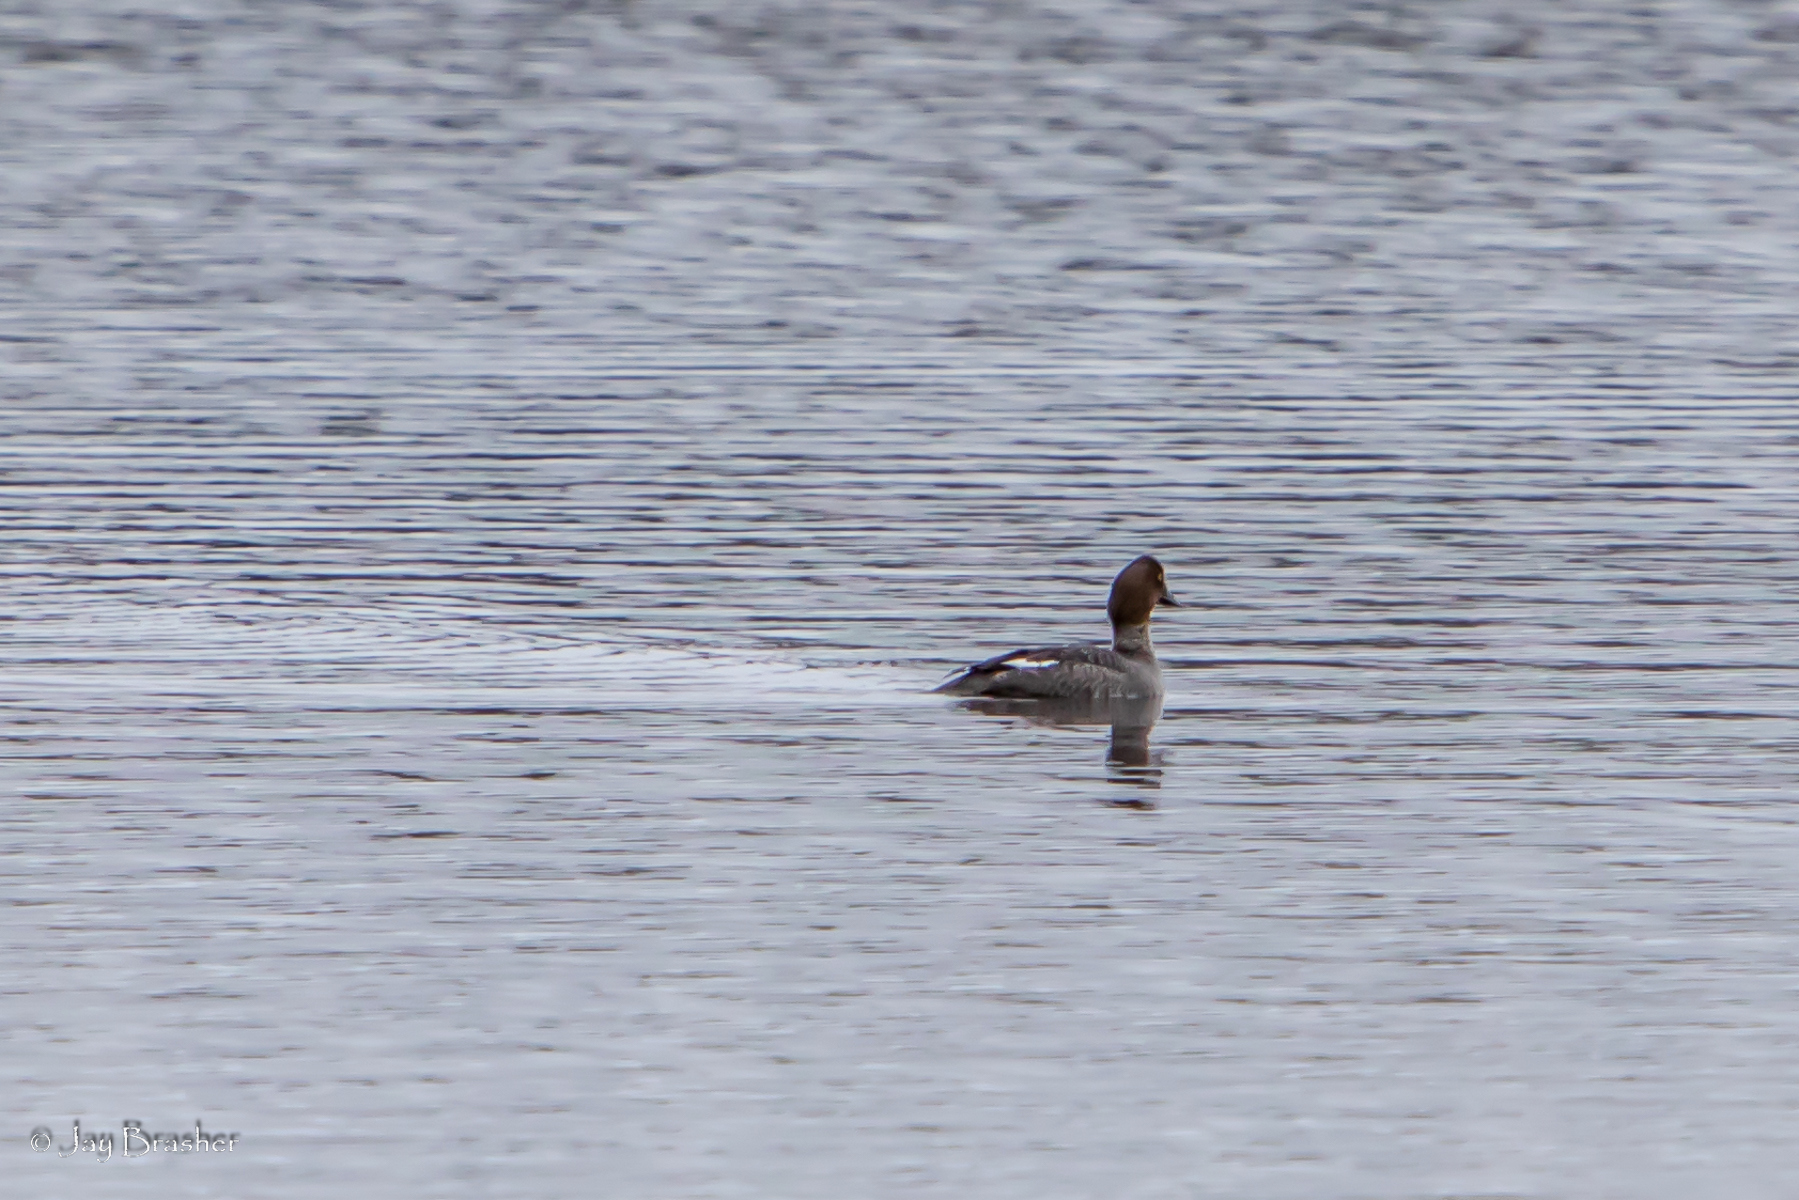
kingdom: Animalia
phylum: Chordata
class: Aves
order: Anseriformes
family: Anatidae
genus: Bucephala
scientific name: Bucephala clangula
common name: Common goldeneye
